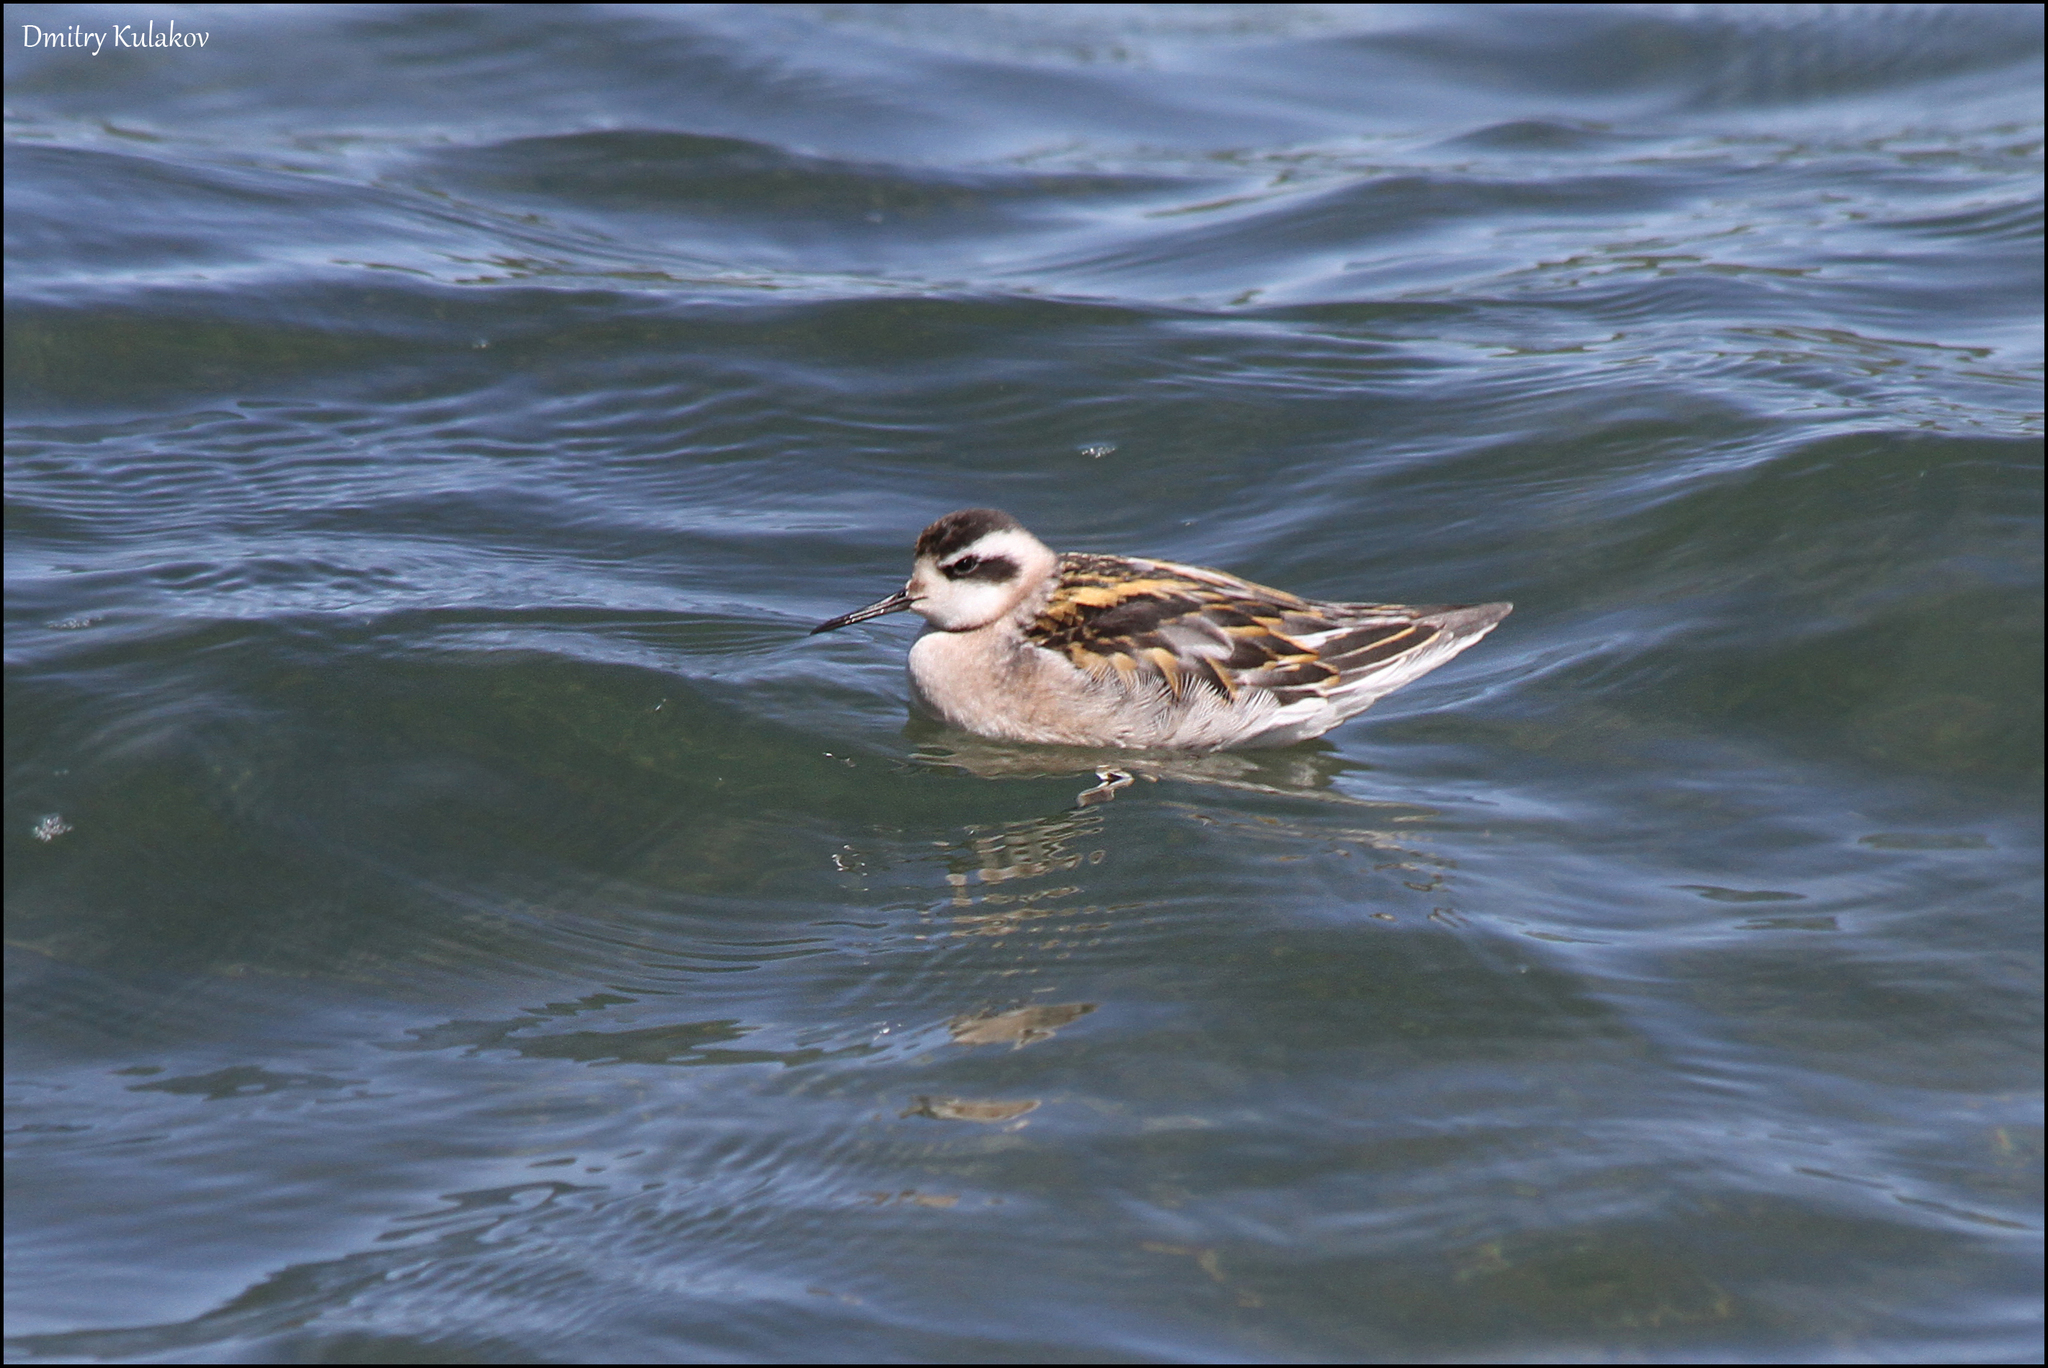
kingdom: Animalia
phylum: Chordata
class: Aves
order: Charadriiformes
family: Scolopacidae
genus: Phalaropus
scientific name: Phalaropus lobatus
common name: Red-necked phalarope
